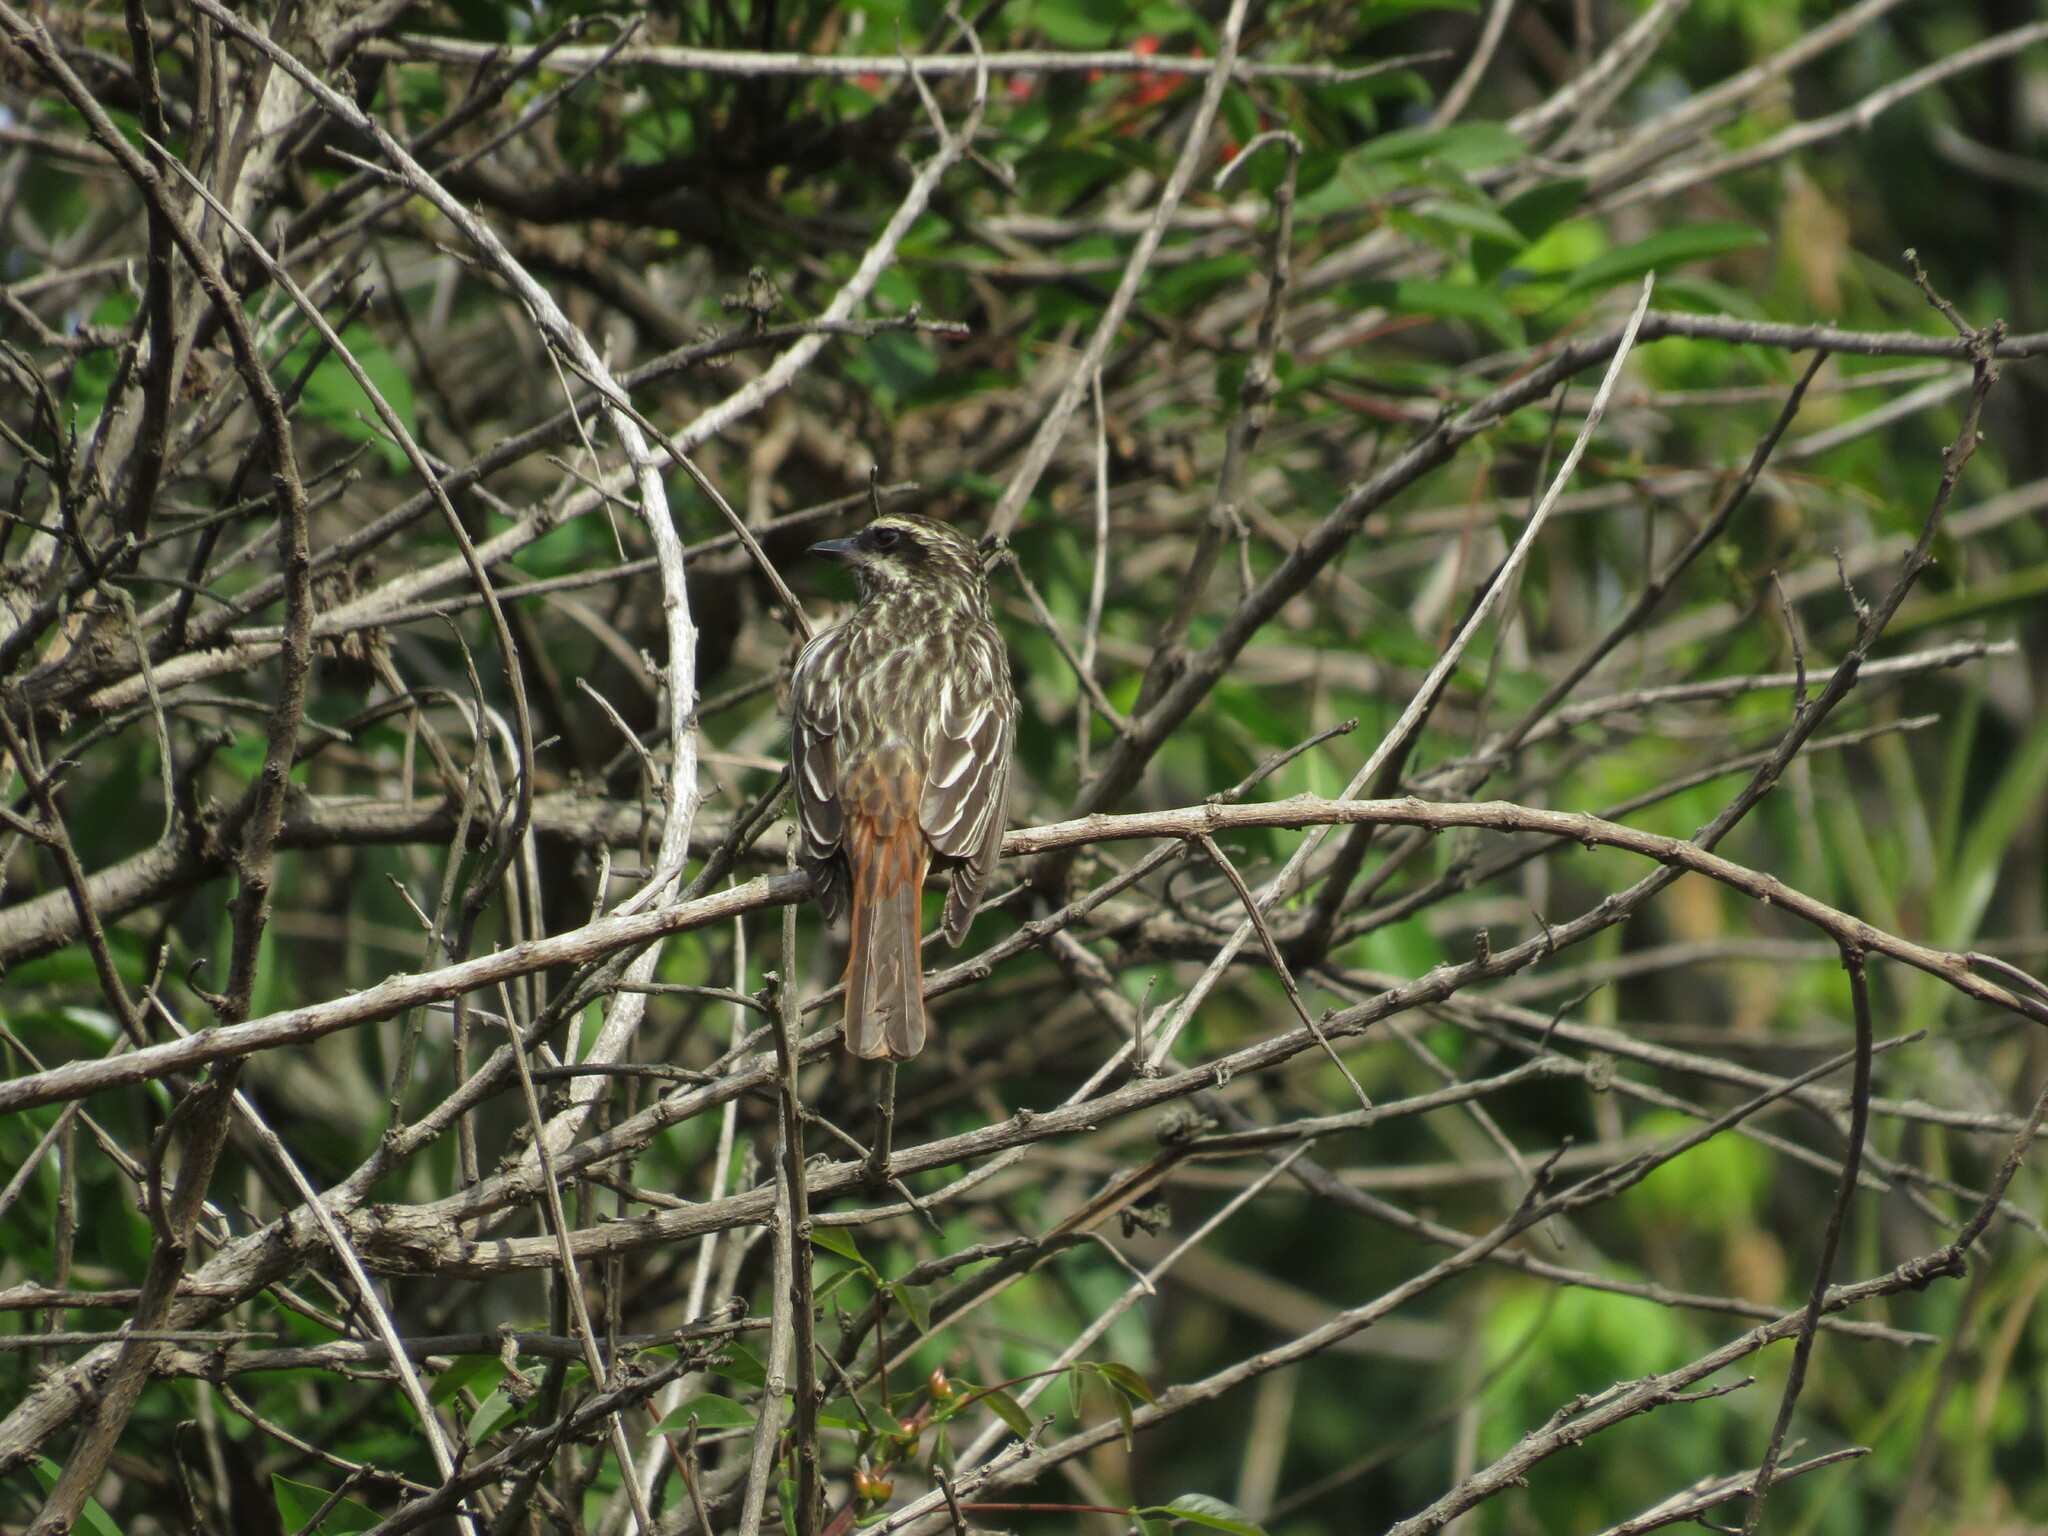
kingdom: Animalia
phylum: Chordata
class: Aves
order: Passeriformes
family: Tyrannidae
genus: Myiodynastes
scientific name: Myiodynastes maculatus
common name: Streaked flycatcher
